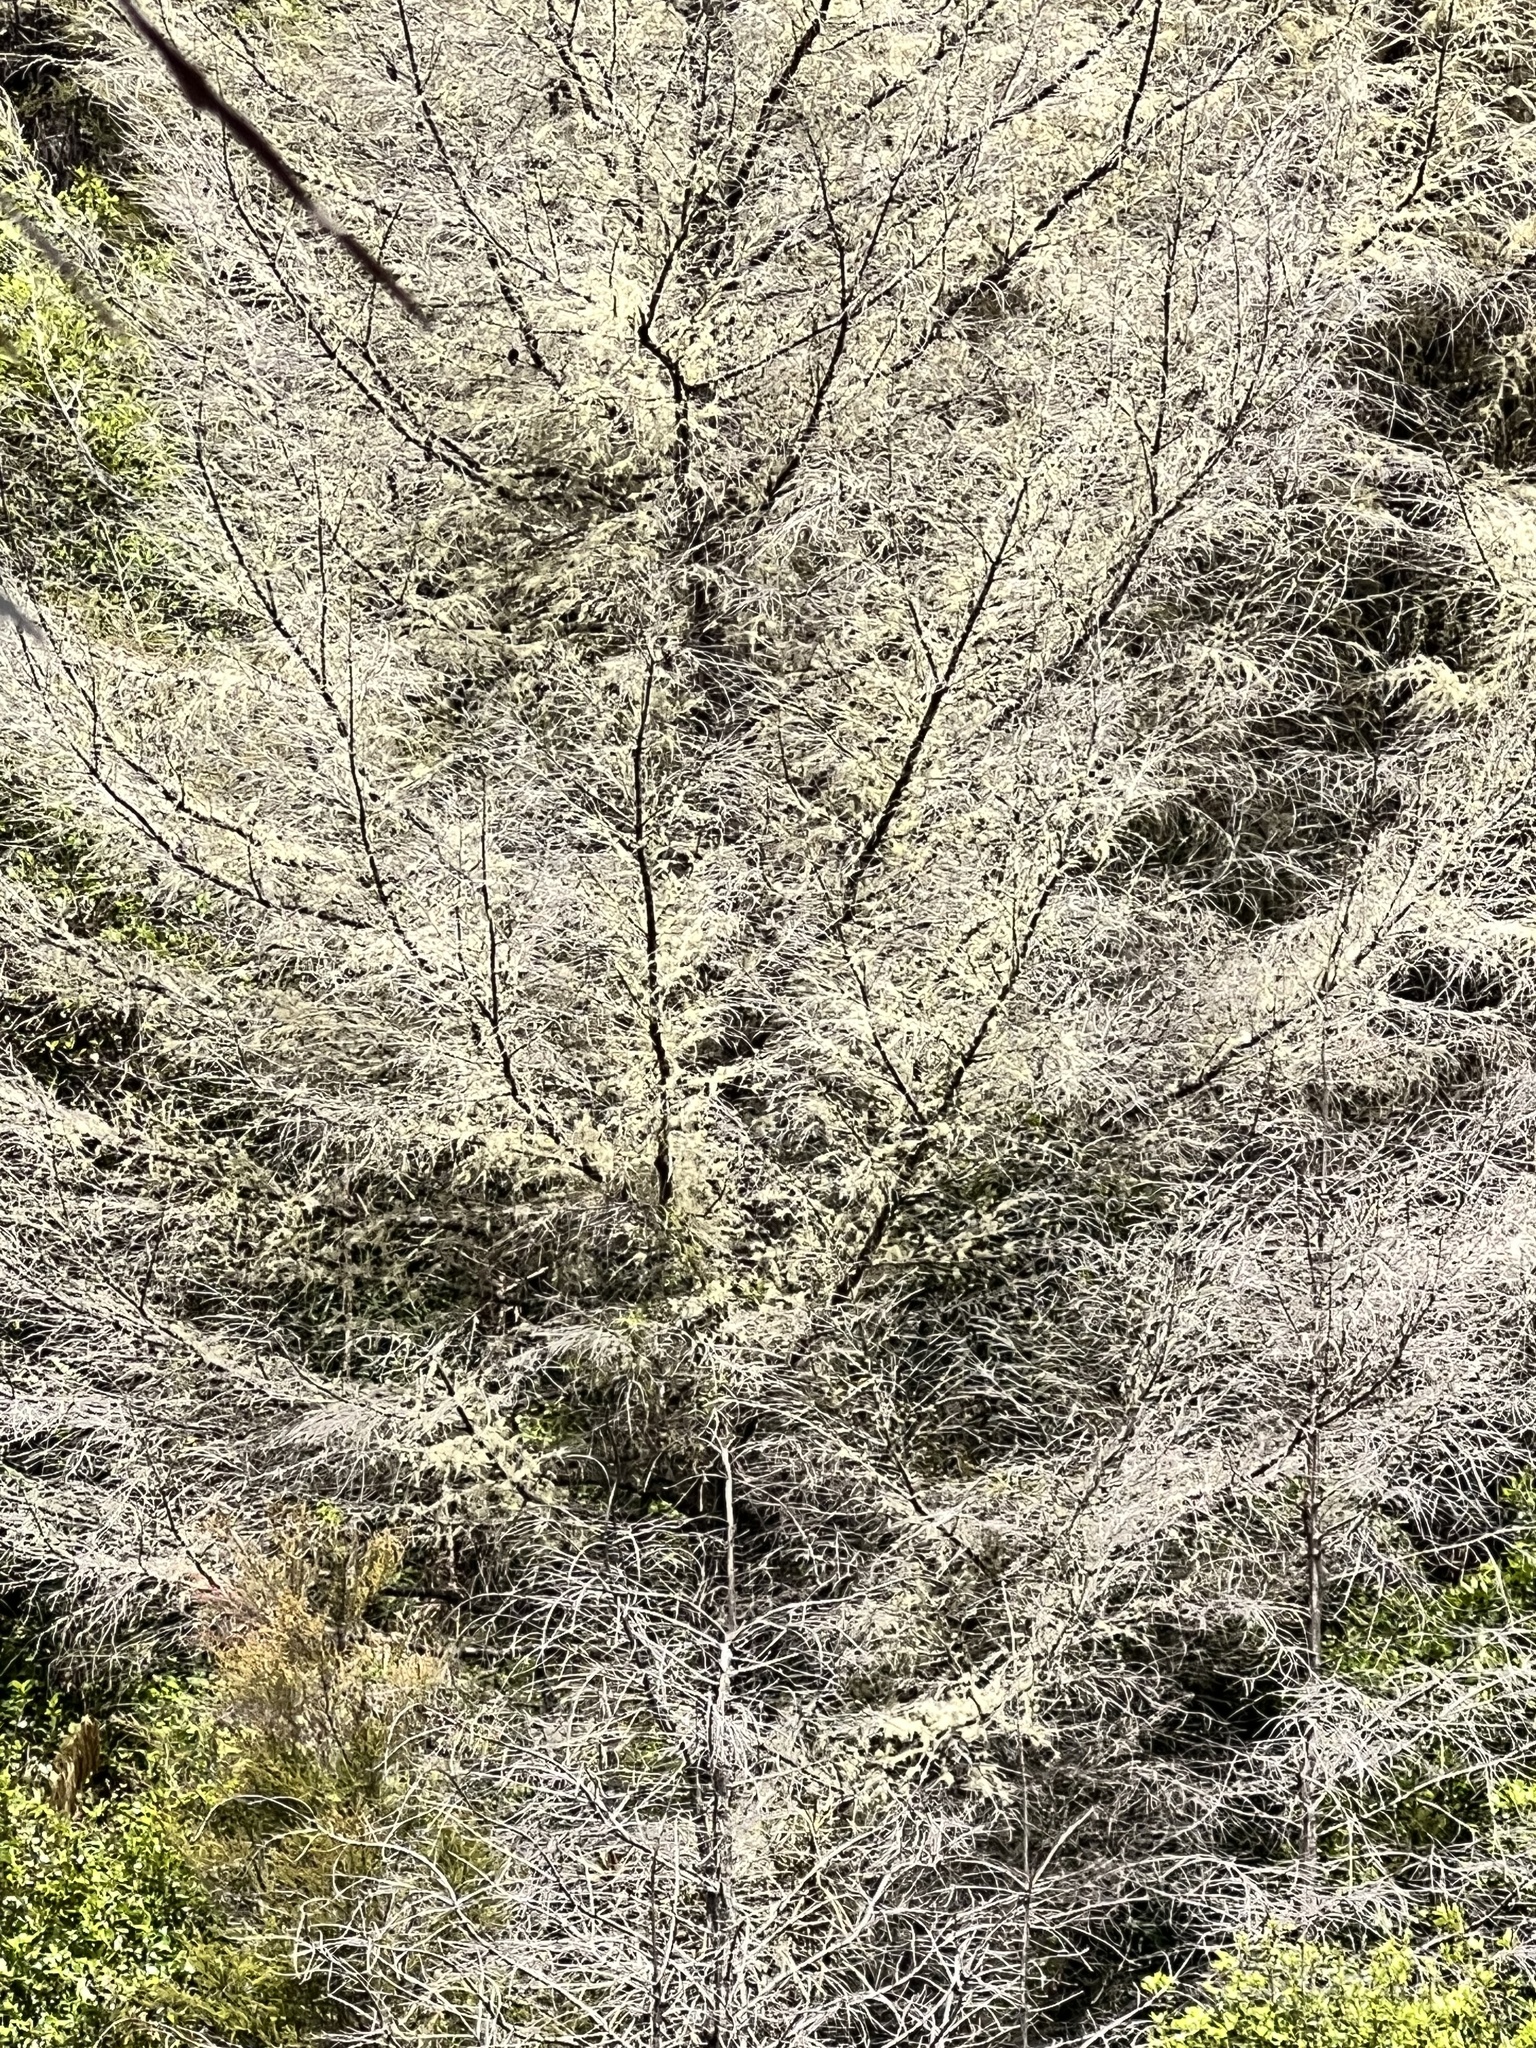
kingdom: Fungi
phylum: Ascomycota
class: Lecanoromycetes
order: Lecanorales
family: Parmeliaceae
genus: Usnea
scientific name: Usnea barbata
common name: Old man's beard lichen
